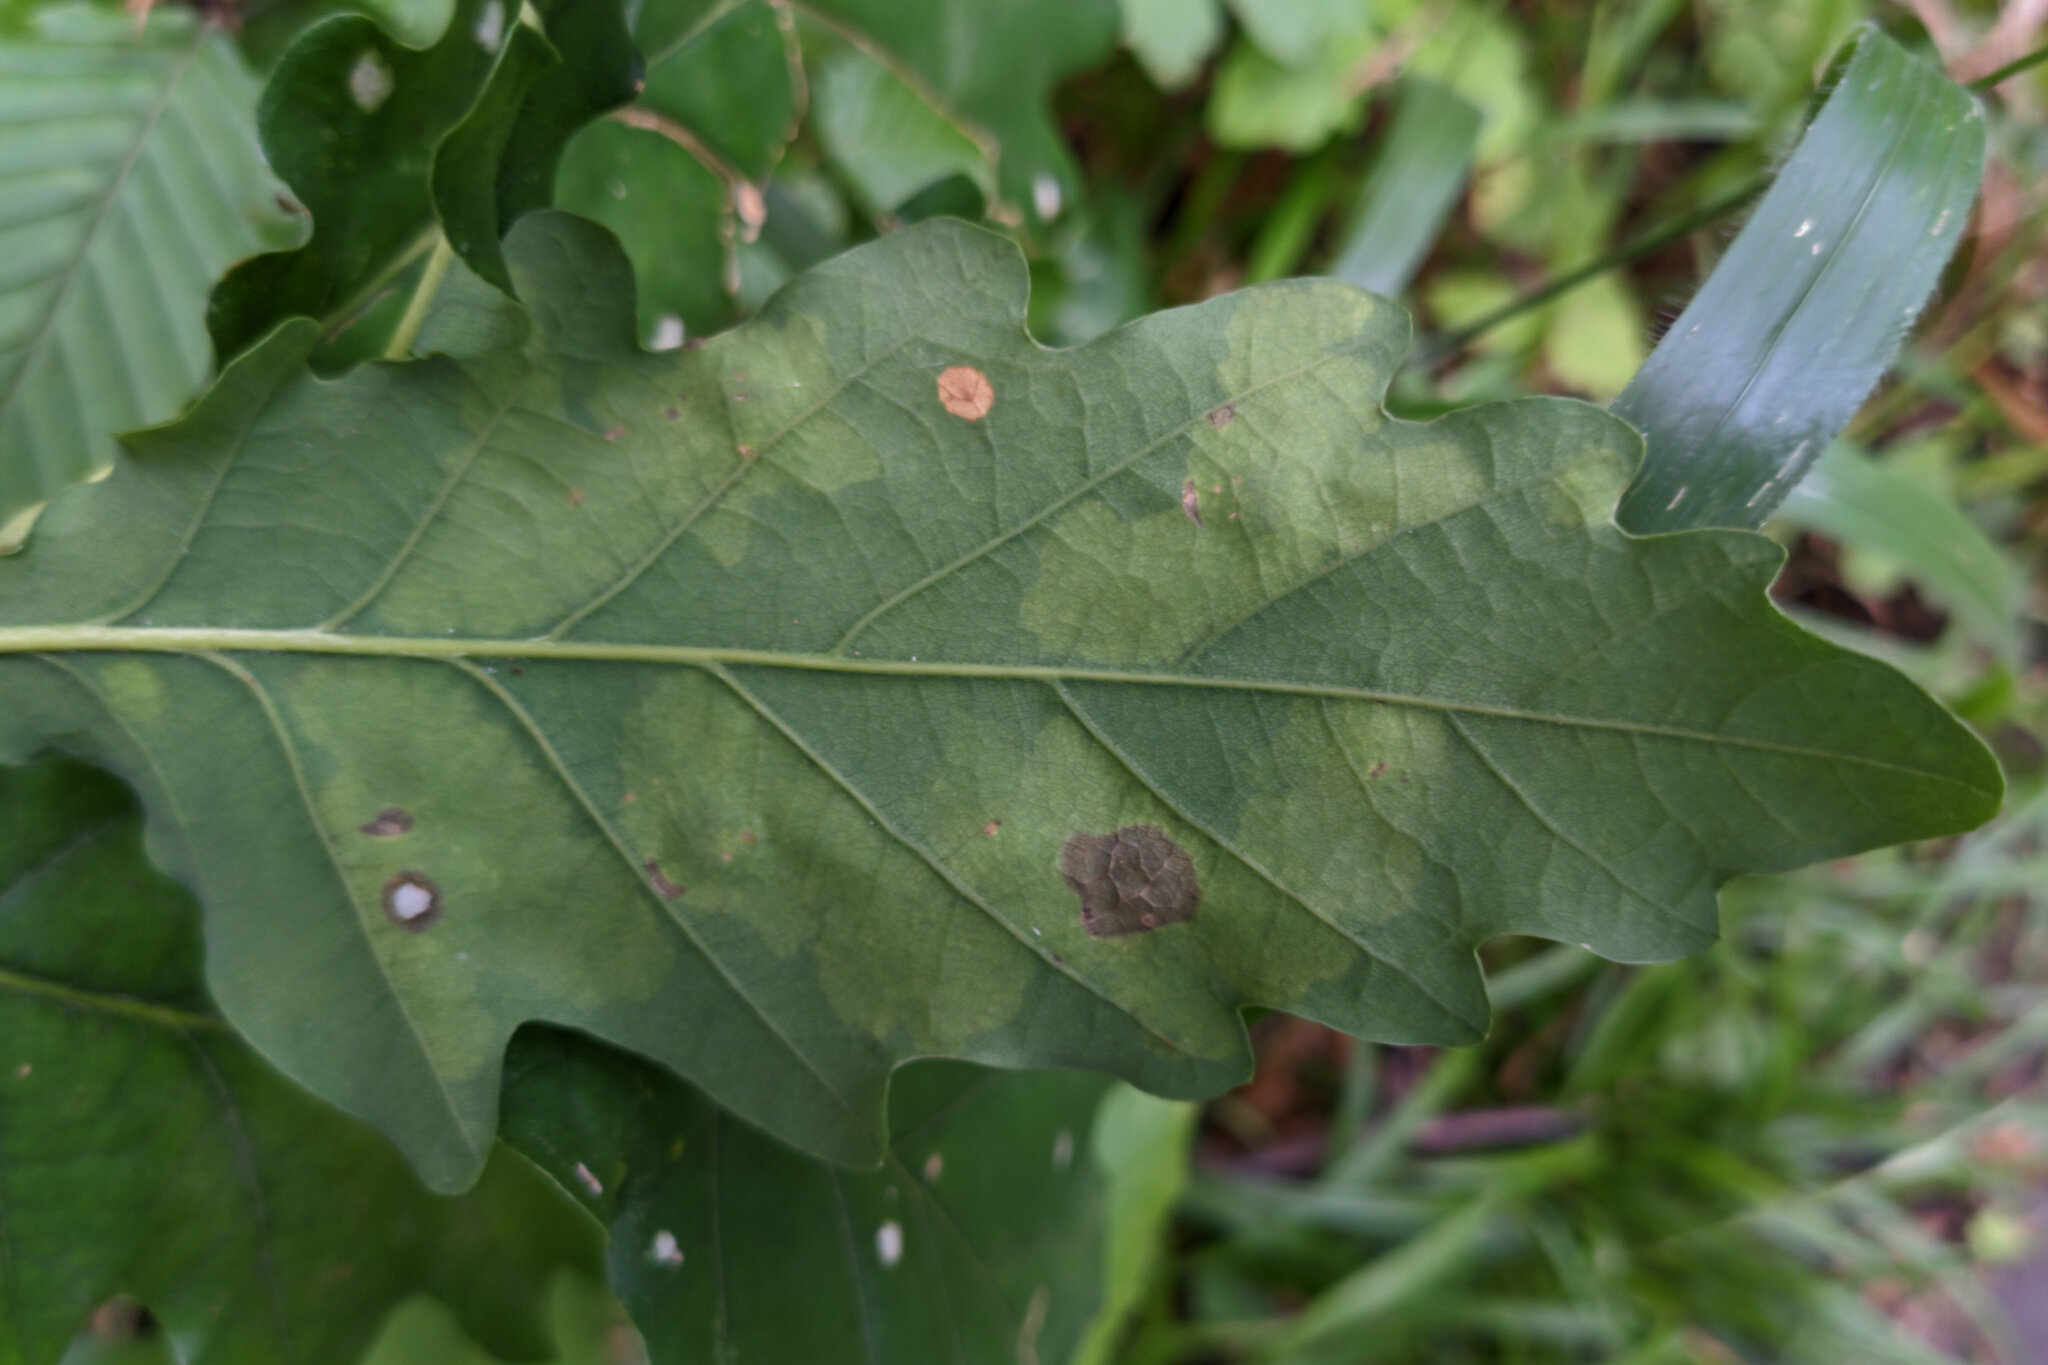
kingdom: Animalia
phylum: Arthropoda
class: Insecta
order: Lepidoptera
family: Tischeriidae
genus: Tischeria
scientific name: Tischeria ekebladella
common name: Oak carl
